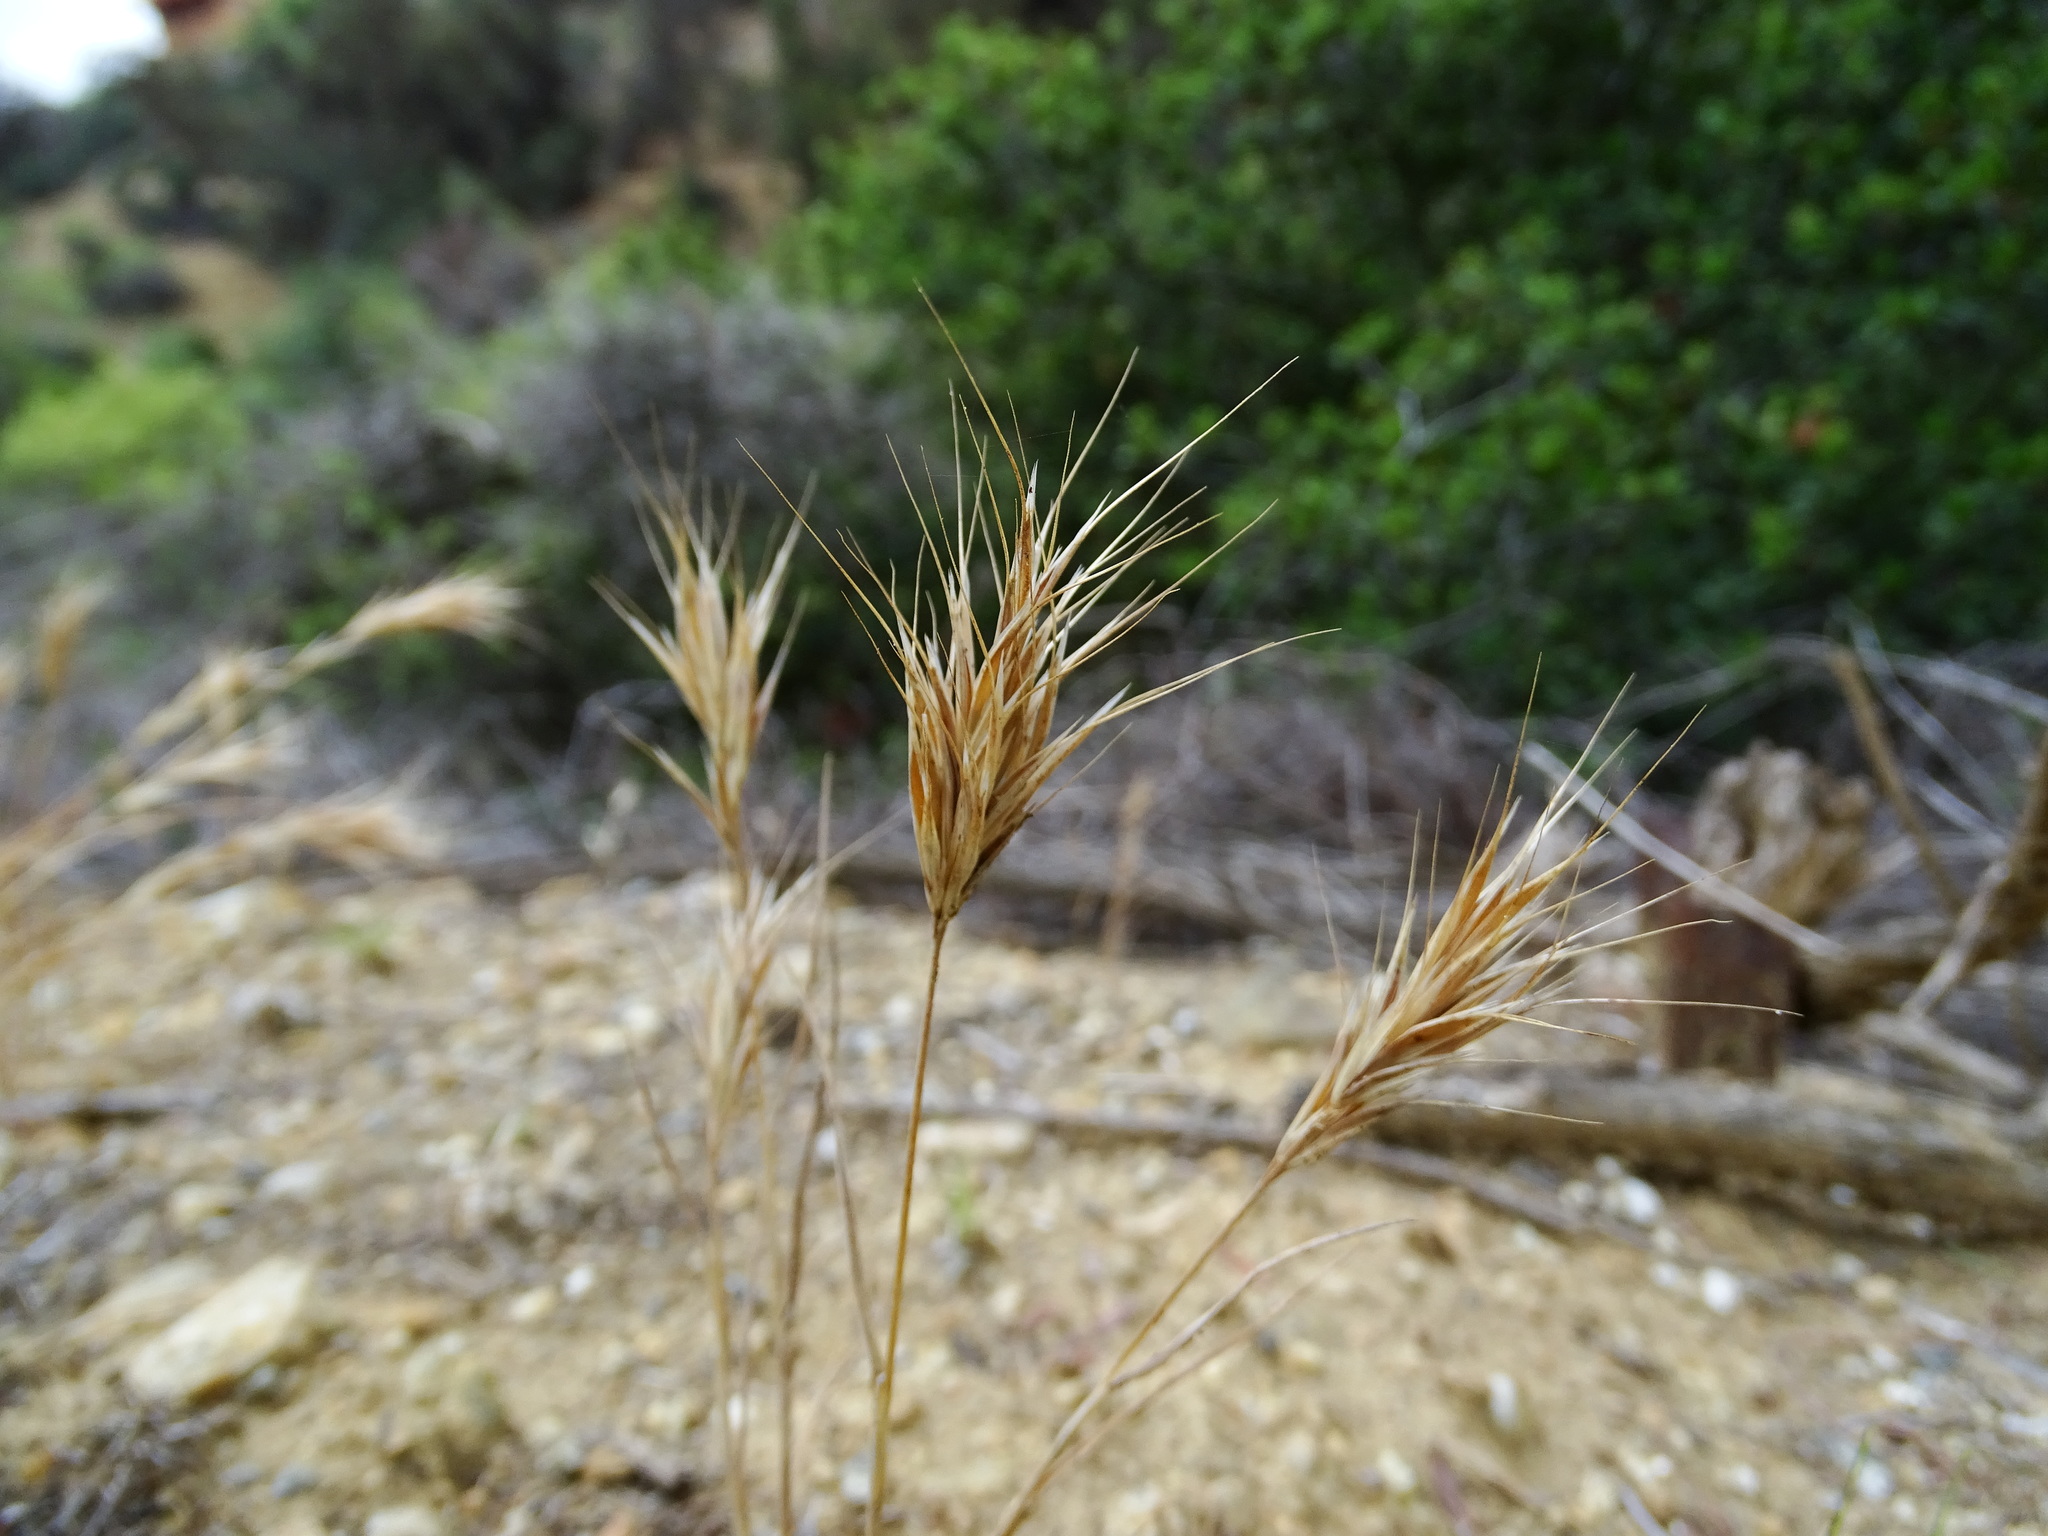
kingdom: Plantae
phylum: Tracheophyta
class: Liliopsida
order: Poales
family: Poaceae
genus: Bromus
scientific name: Bromus madritensis
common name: Compact brome
